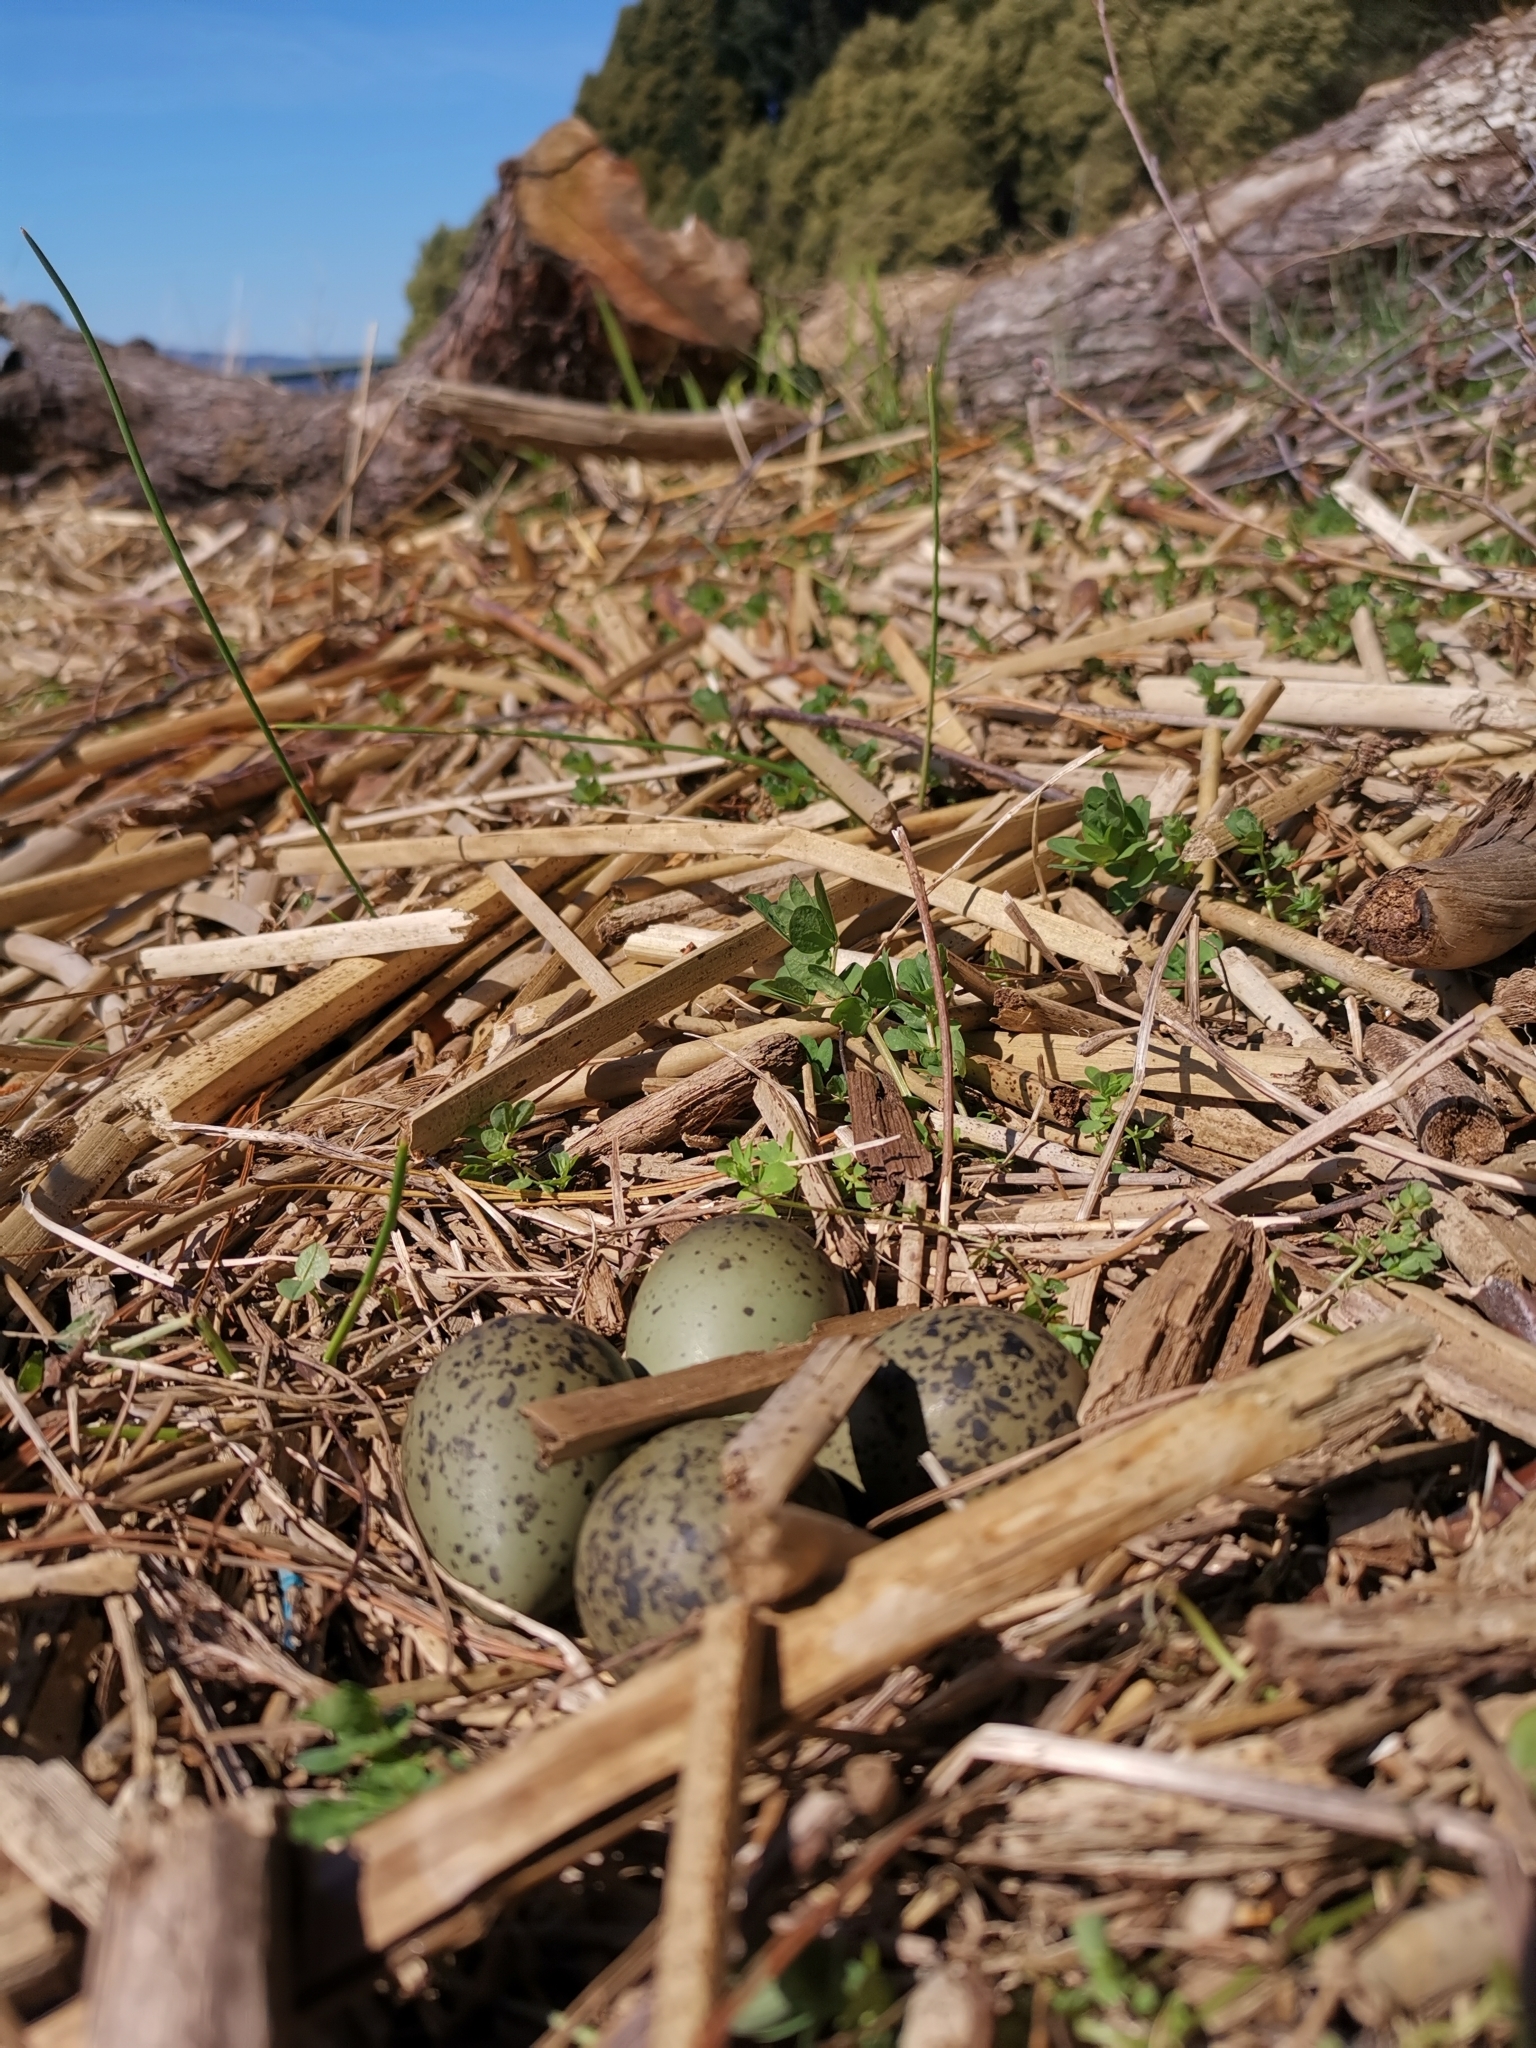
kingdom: Animalia
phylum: Chordata
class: Aves
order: Charadriiformes
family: Charadriidae
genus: Vanellus
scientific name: Vanellus chilensis
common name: Southern lapwing
